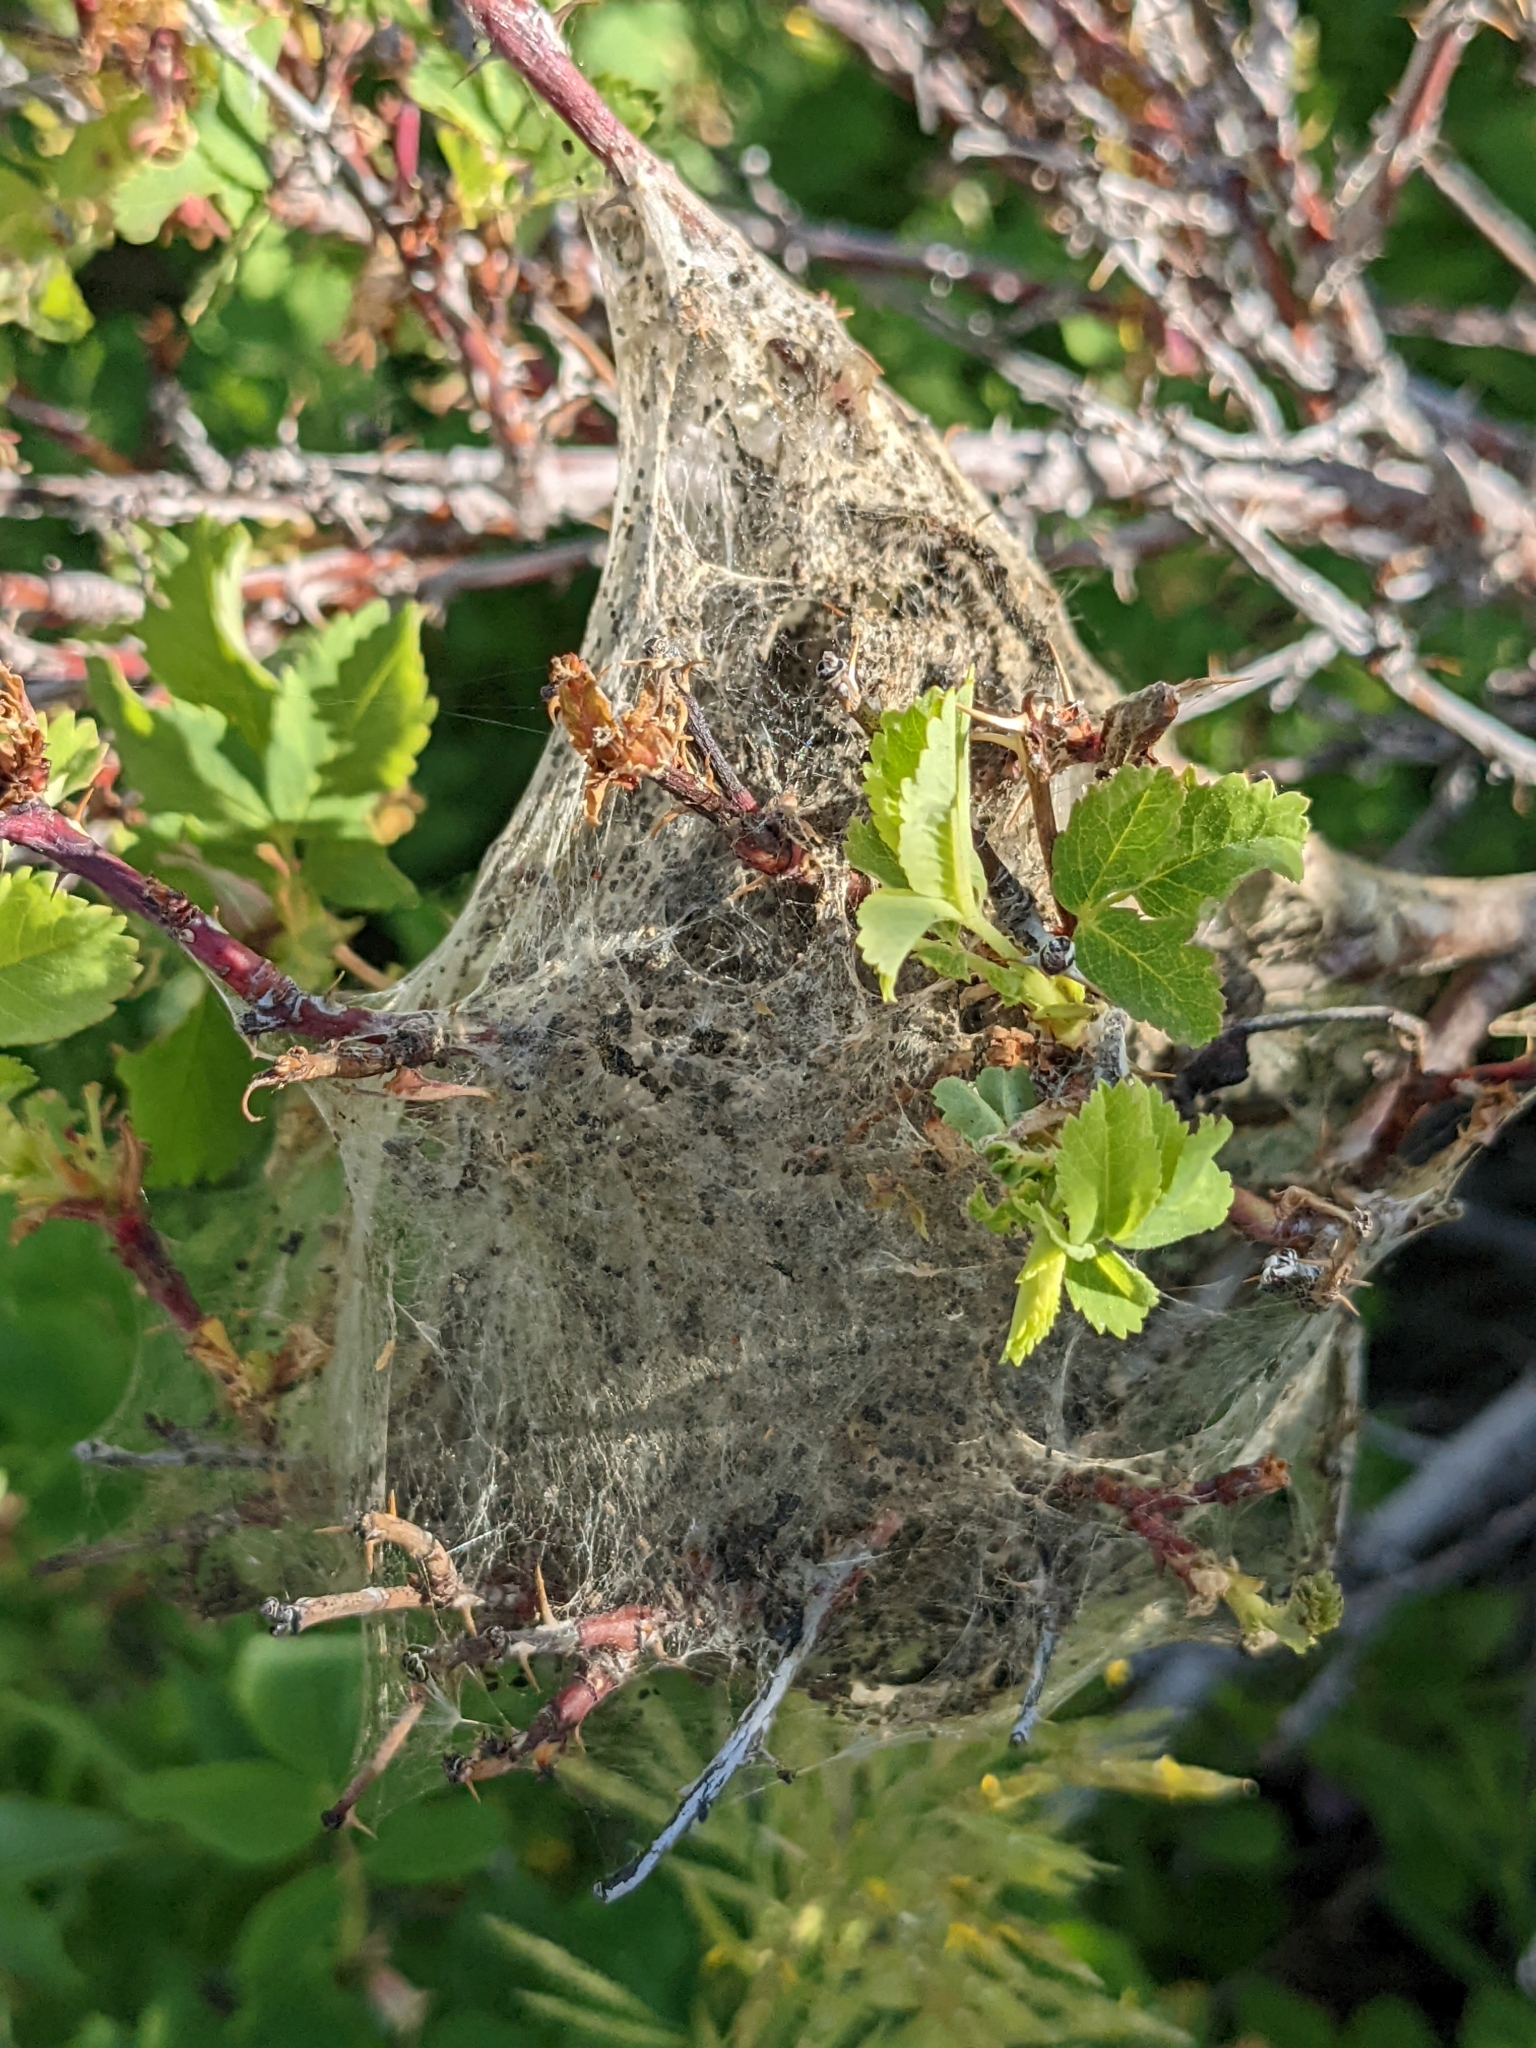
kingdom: Animalia
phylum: Arthropoda
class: Insecta
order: Lepidoptera
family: Lasiocampidae
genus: Malacosoma
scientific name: Malacosoma californica
